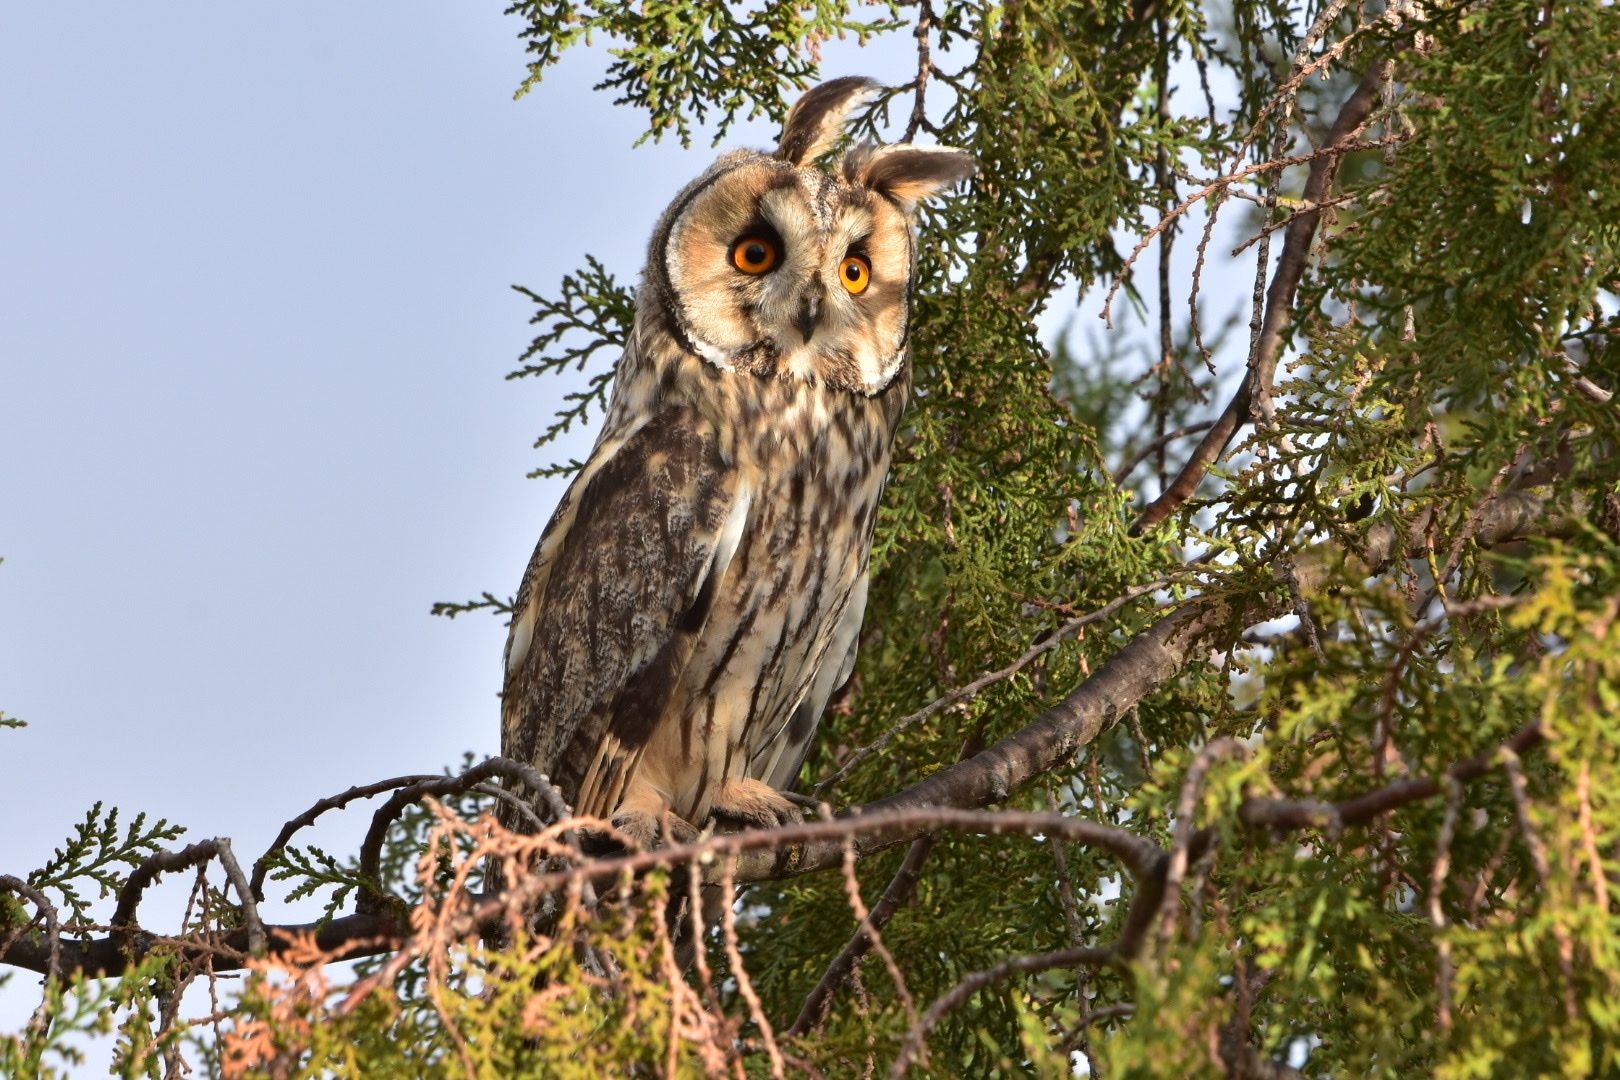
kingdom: Animalia
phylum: Chordata
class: Aves
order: Strigiformes
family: Strigidae
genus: Asio
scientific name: Asio otus
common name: Long-eared owl
